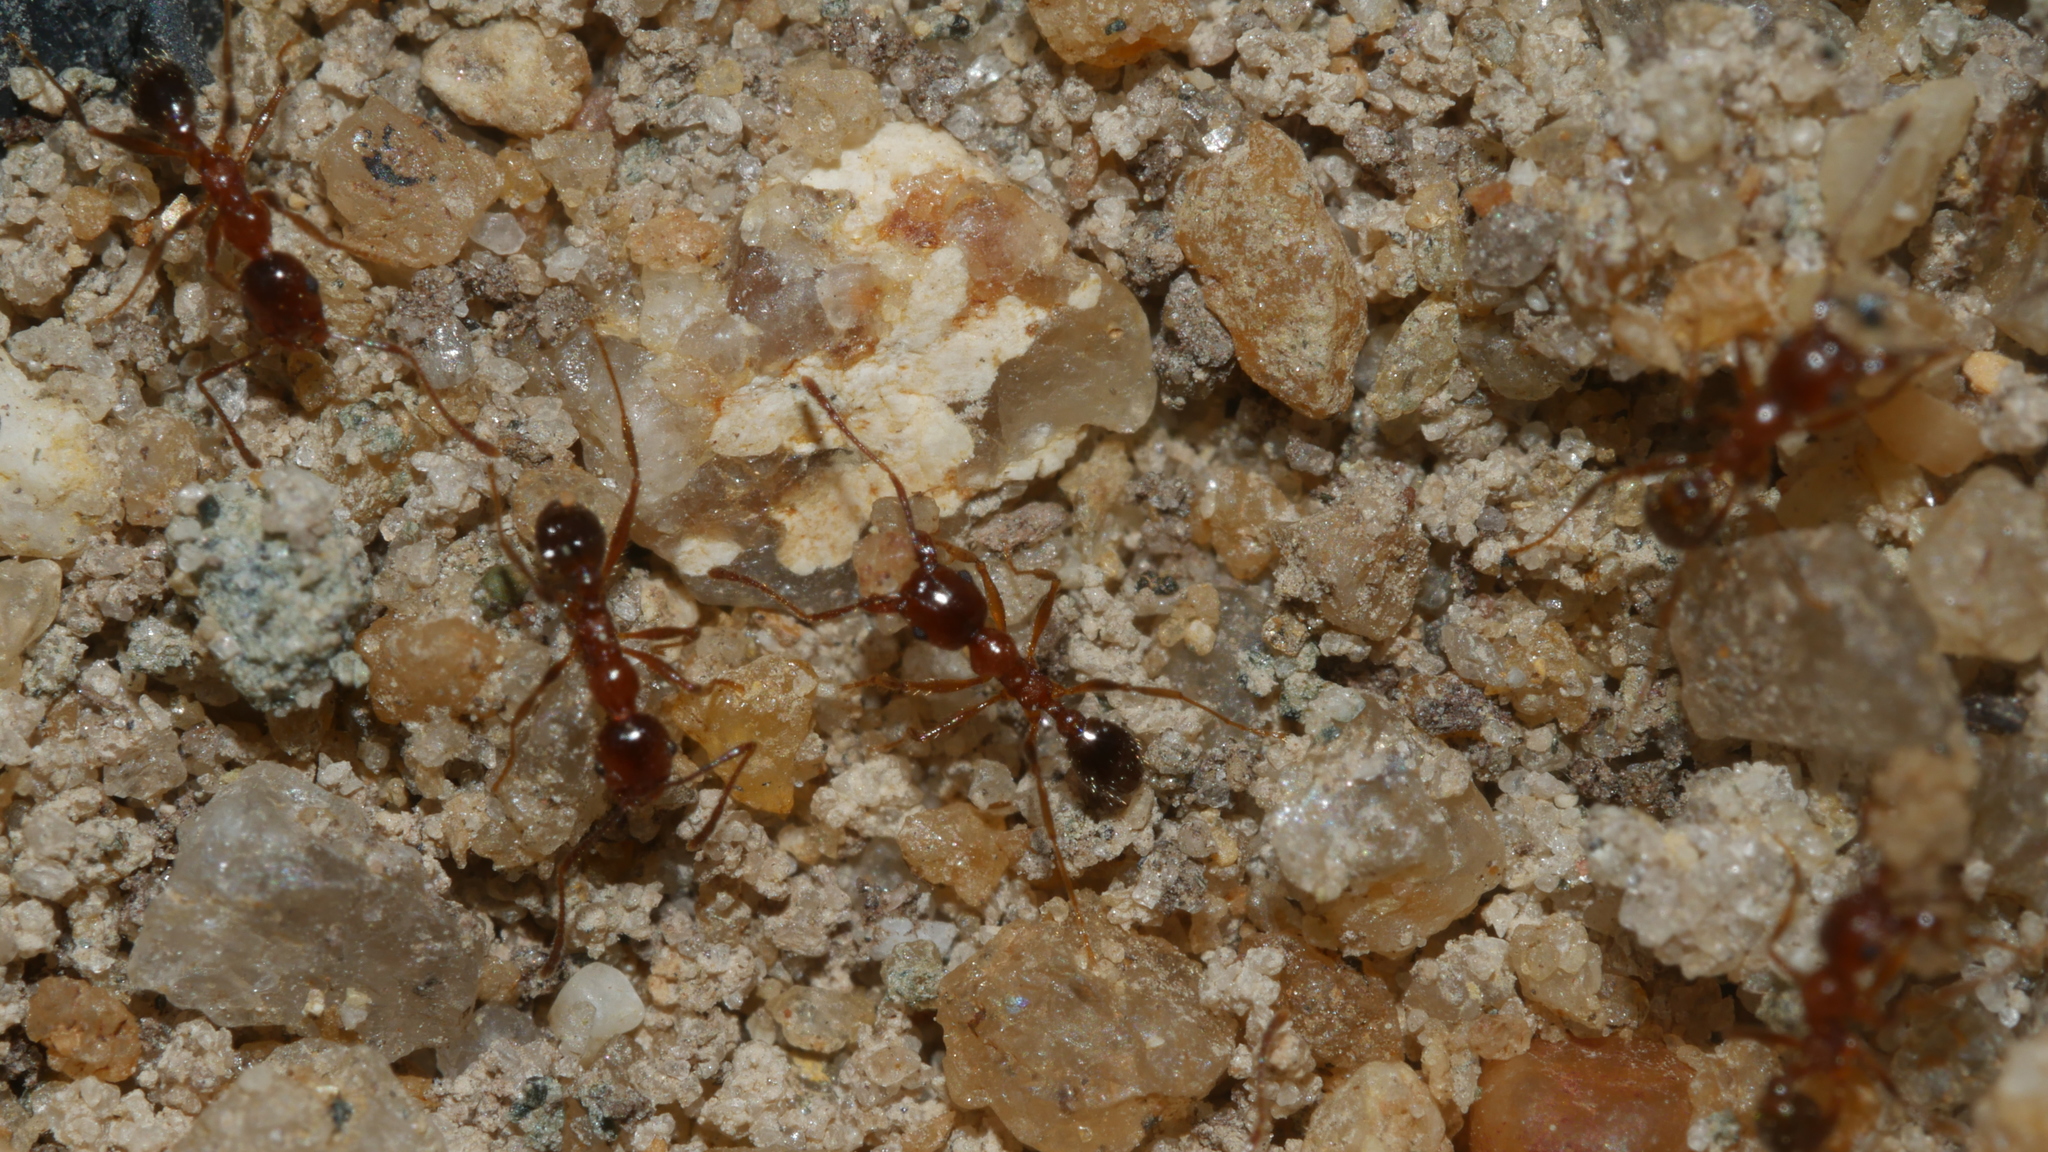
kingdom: Animalia
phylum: Arthropoda
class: Insecta
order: Hymenoptera
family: Formicidae
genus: Pheidole
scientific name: Pheidole dentata
